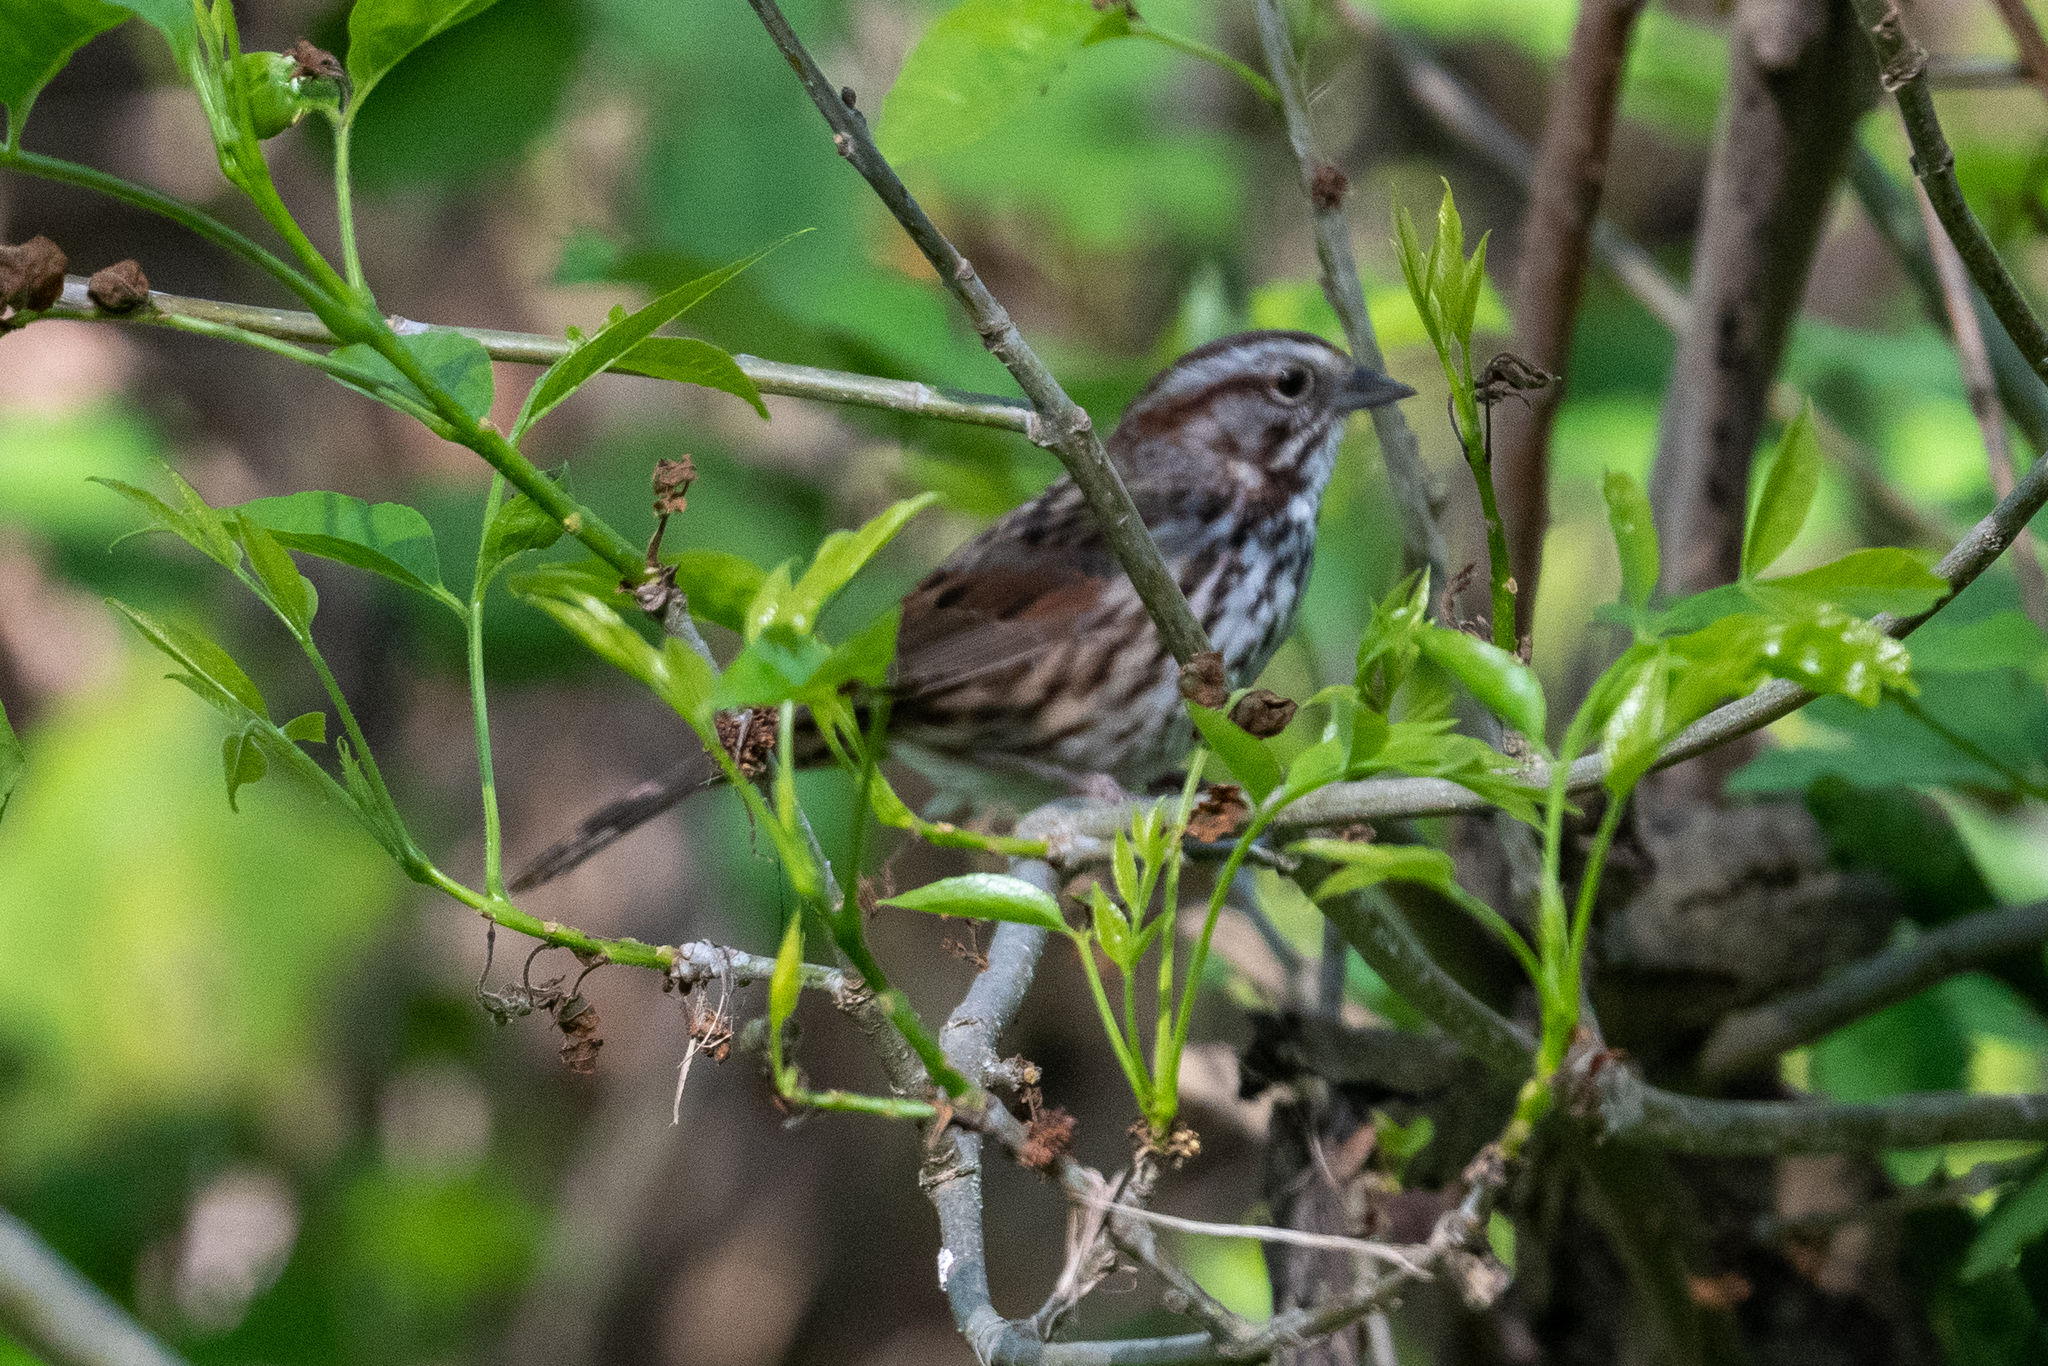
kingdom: Animalia
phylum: Chordata
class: Aves
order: Passeriformes
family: Passerellidae
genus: Melospiza
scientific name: Melospiza melodia
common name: Song sparrow
